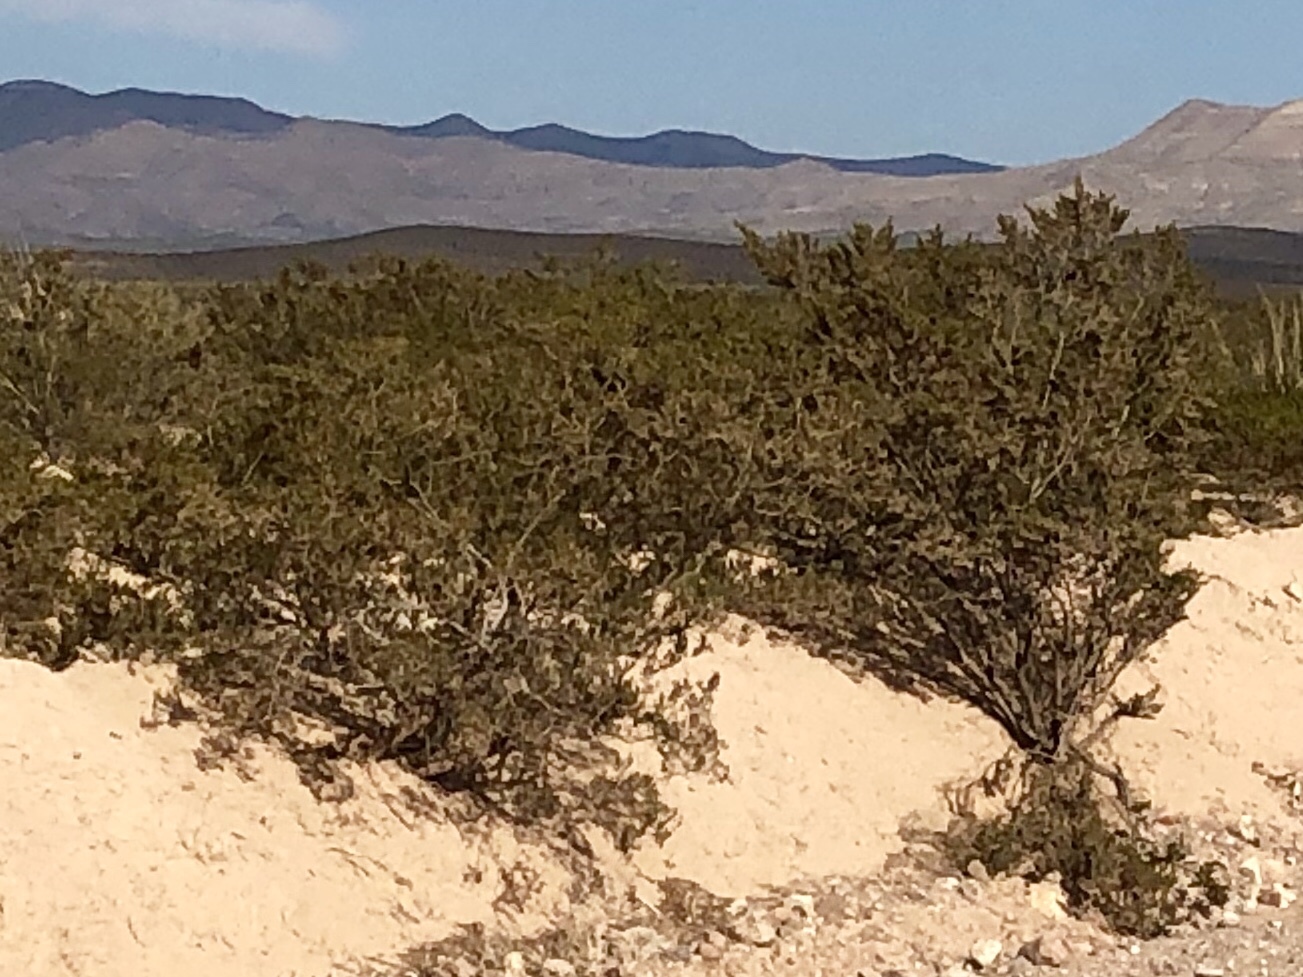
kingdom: Plantae
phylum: Tracheophyta
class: Magnoliopsida
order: Zygophyllales
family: Zygophyllaceae
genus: Larrea
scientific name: Larrea tridentata
